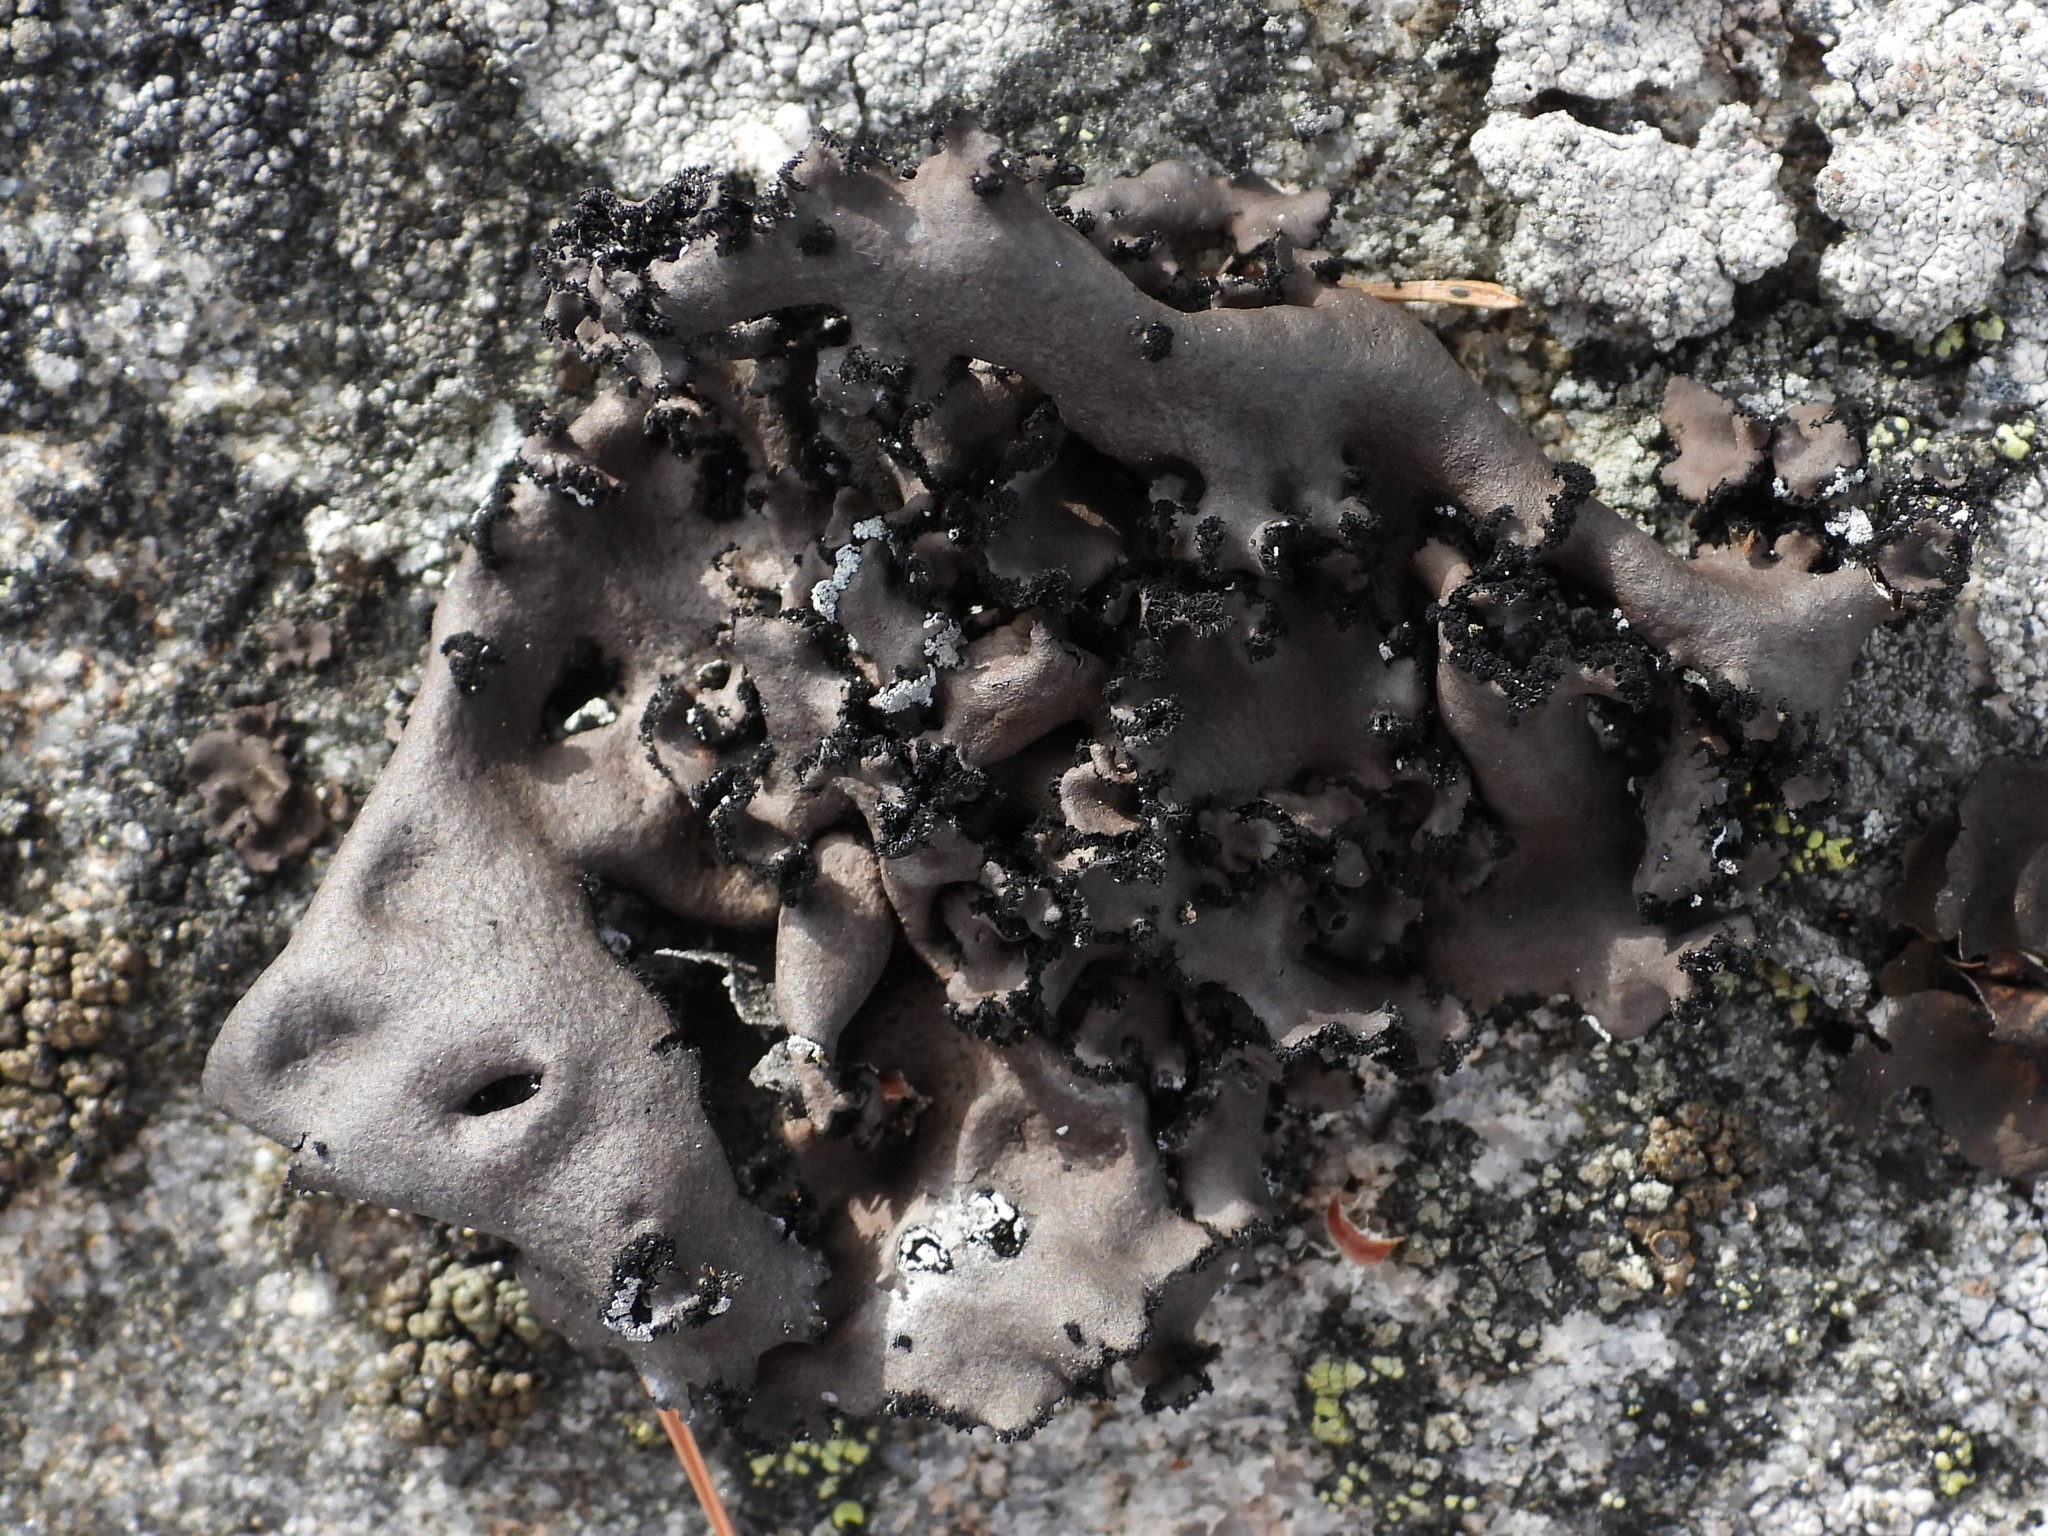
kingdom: Fungi
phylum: Ascomycota
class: Lecanoromycetes
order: Umbilicariales
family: Umbilicariaceae
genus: Umbilicaria
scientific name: Umbilicaria polyrrhiza
